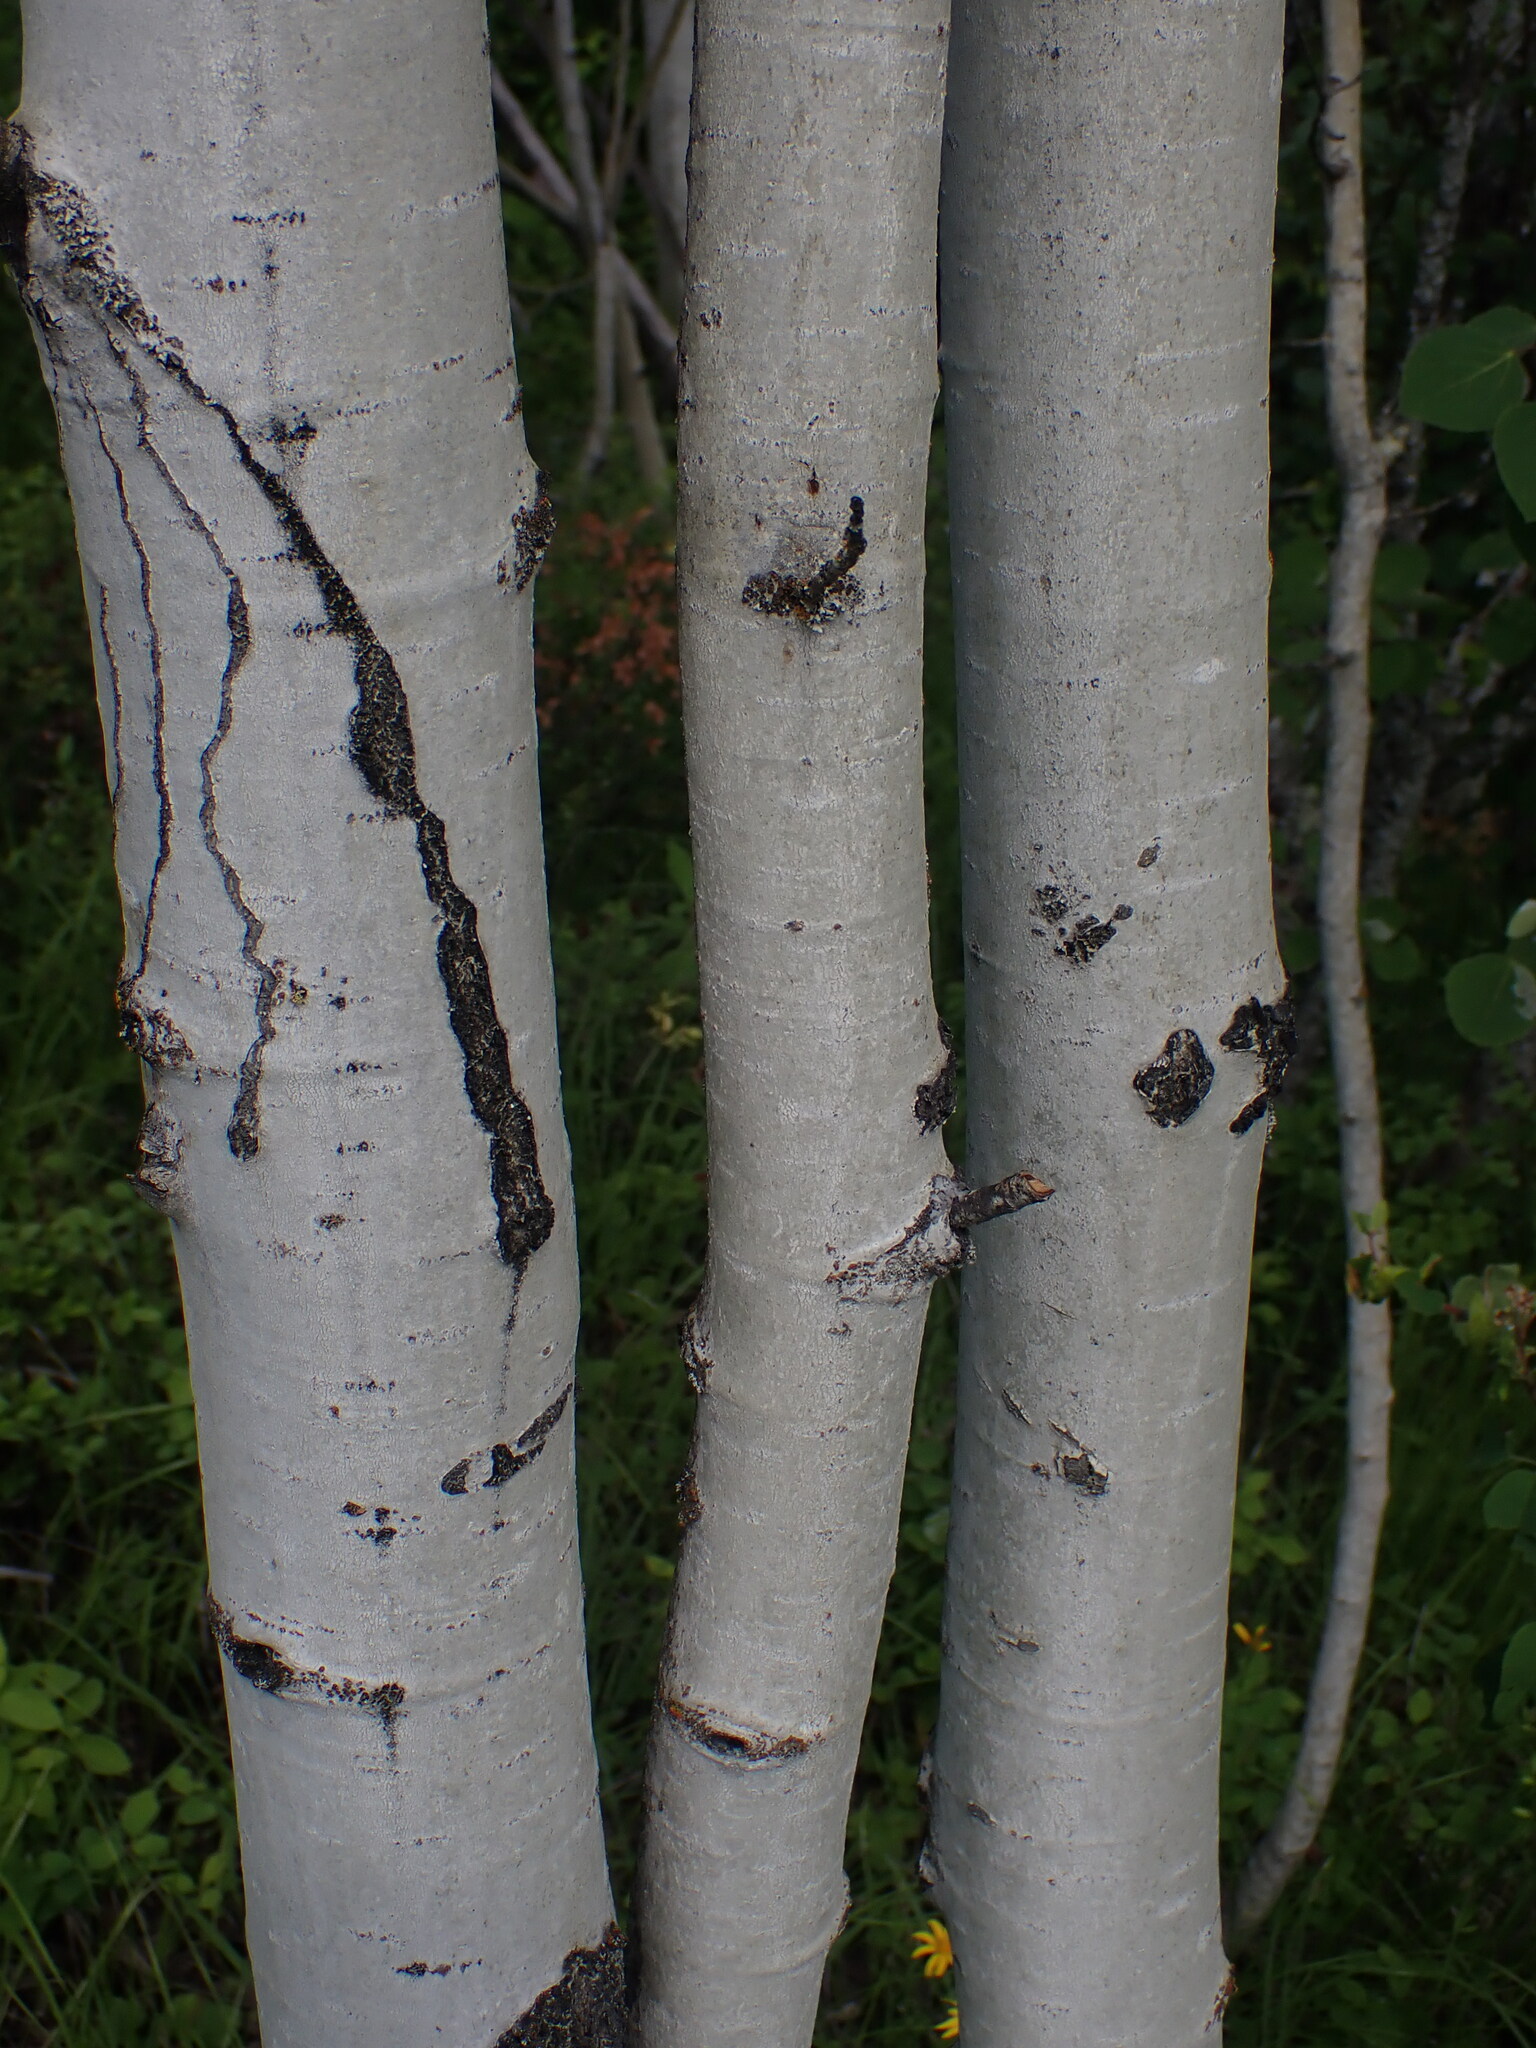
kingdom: Plantae
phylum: Tracheophyta
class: Magnoliopsida
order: Malpighiales
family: Salicaceae
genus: Populus
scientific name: Populus tremuloides
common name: Quaking aspen
